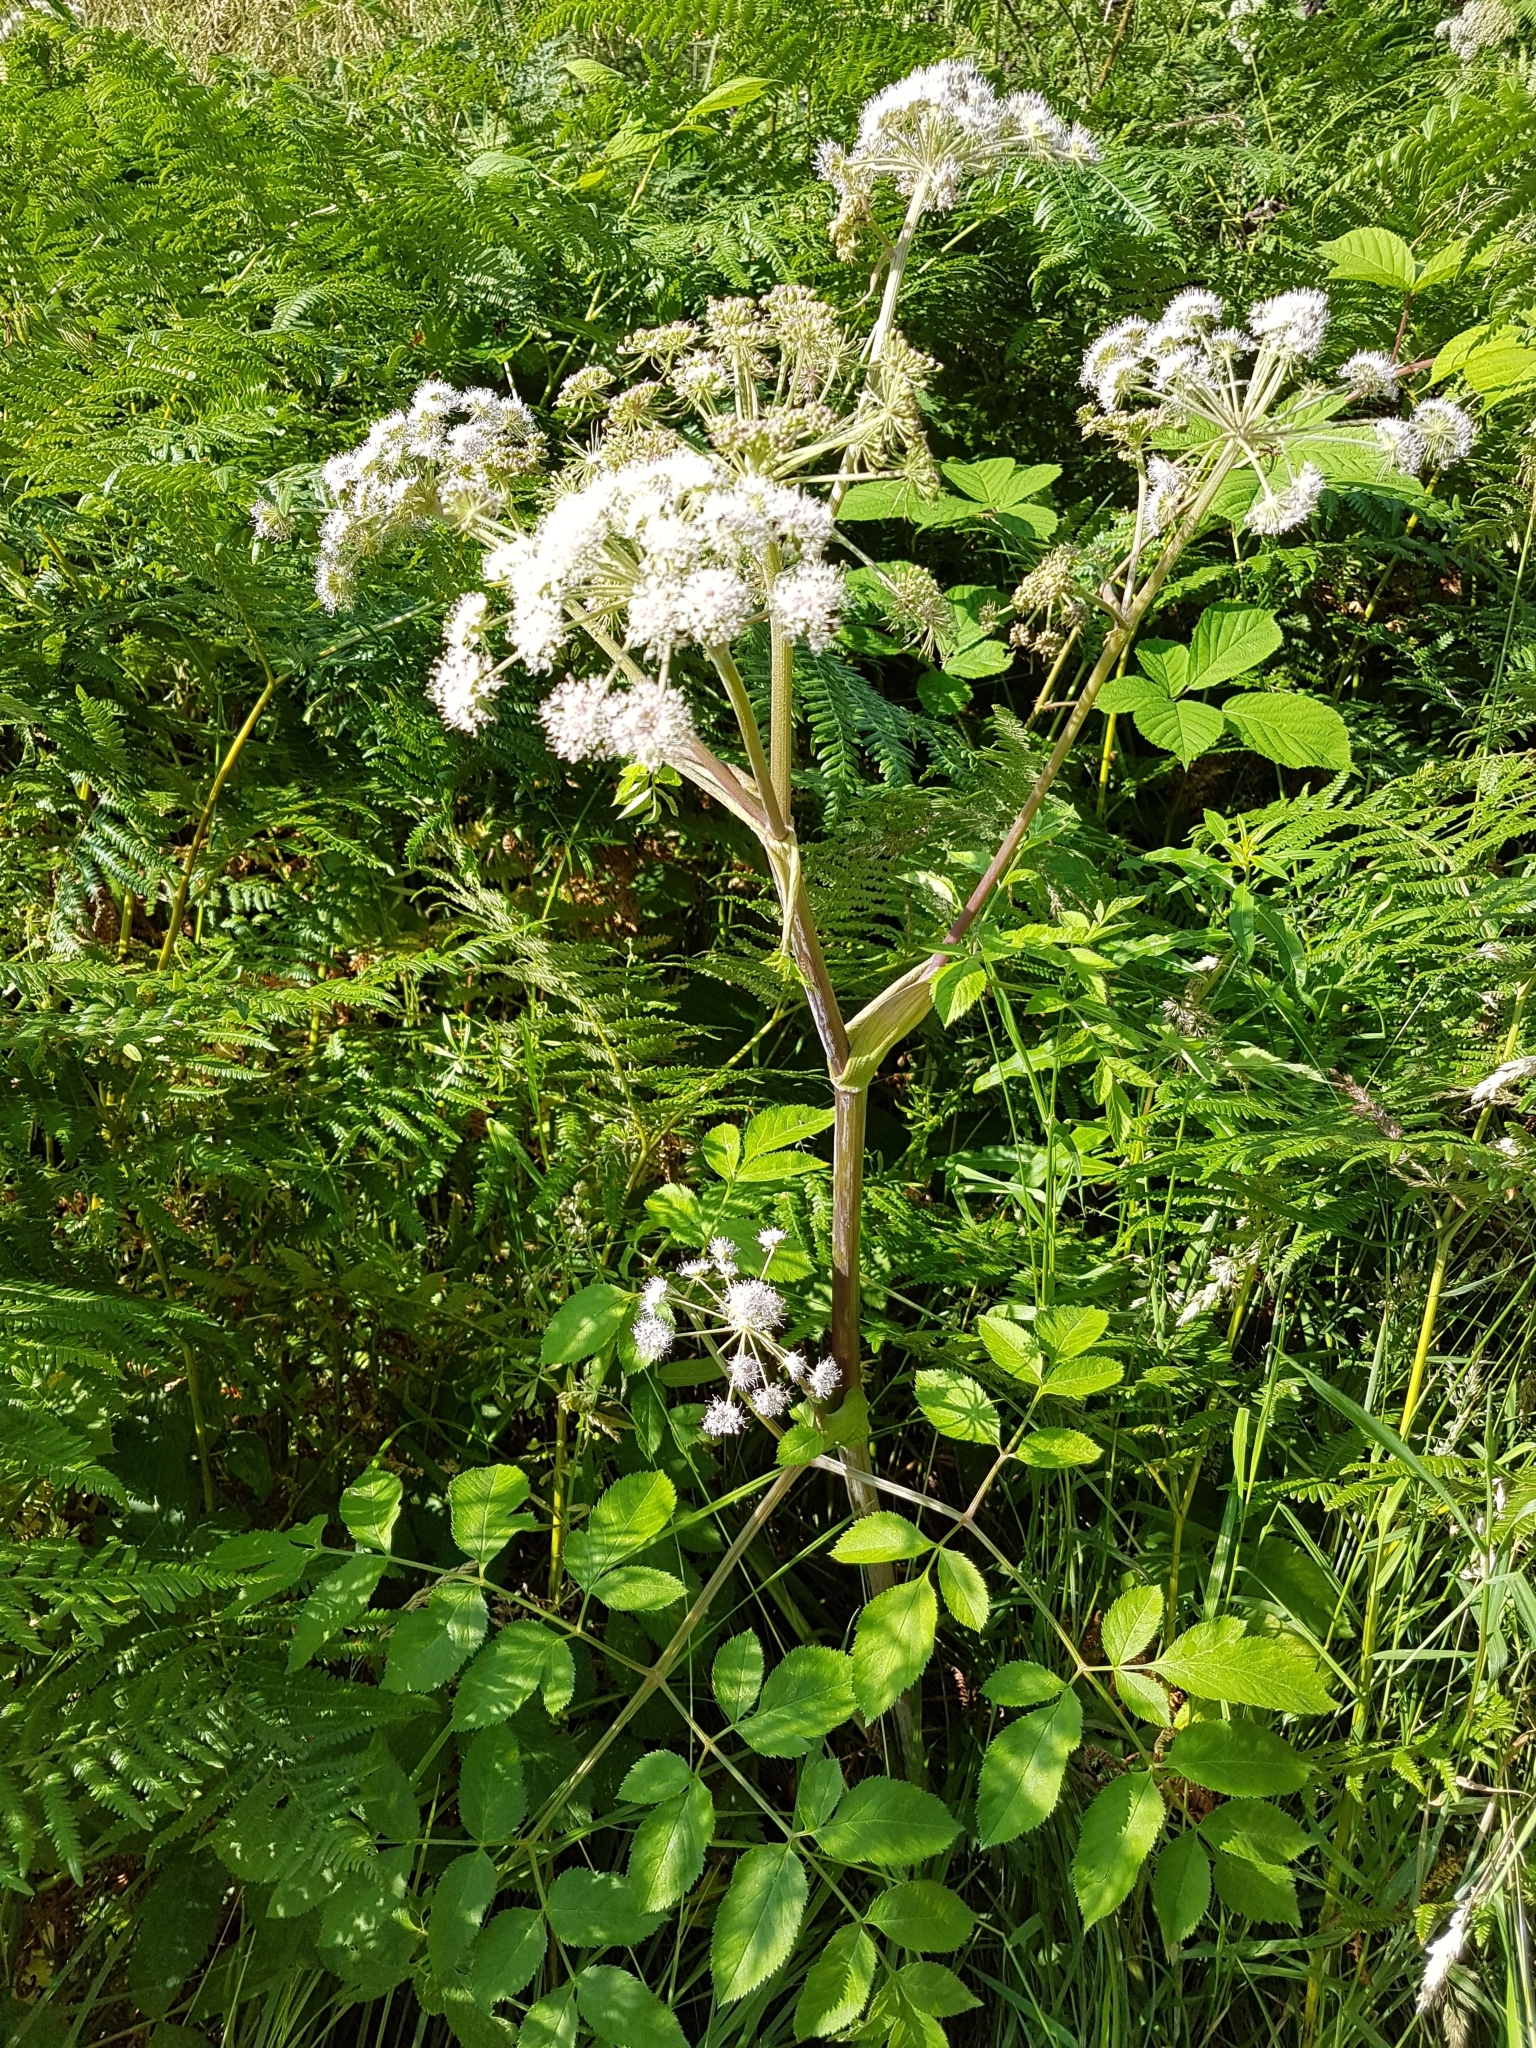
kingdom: Plantae
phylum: Tracheophyta
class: Magnoliopsida
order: Apiales
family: Apiaceae
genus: Angelica
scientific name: Angelica sylvestris
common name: Wild angelica
